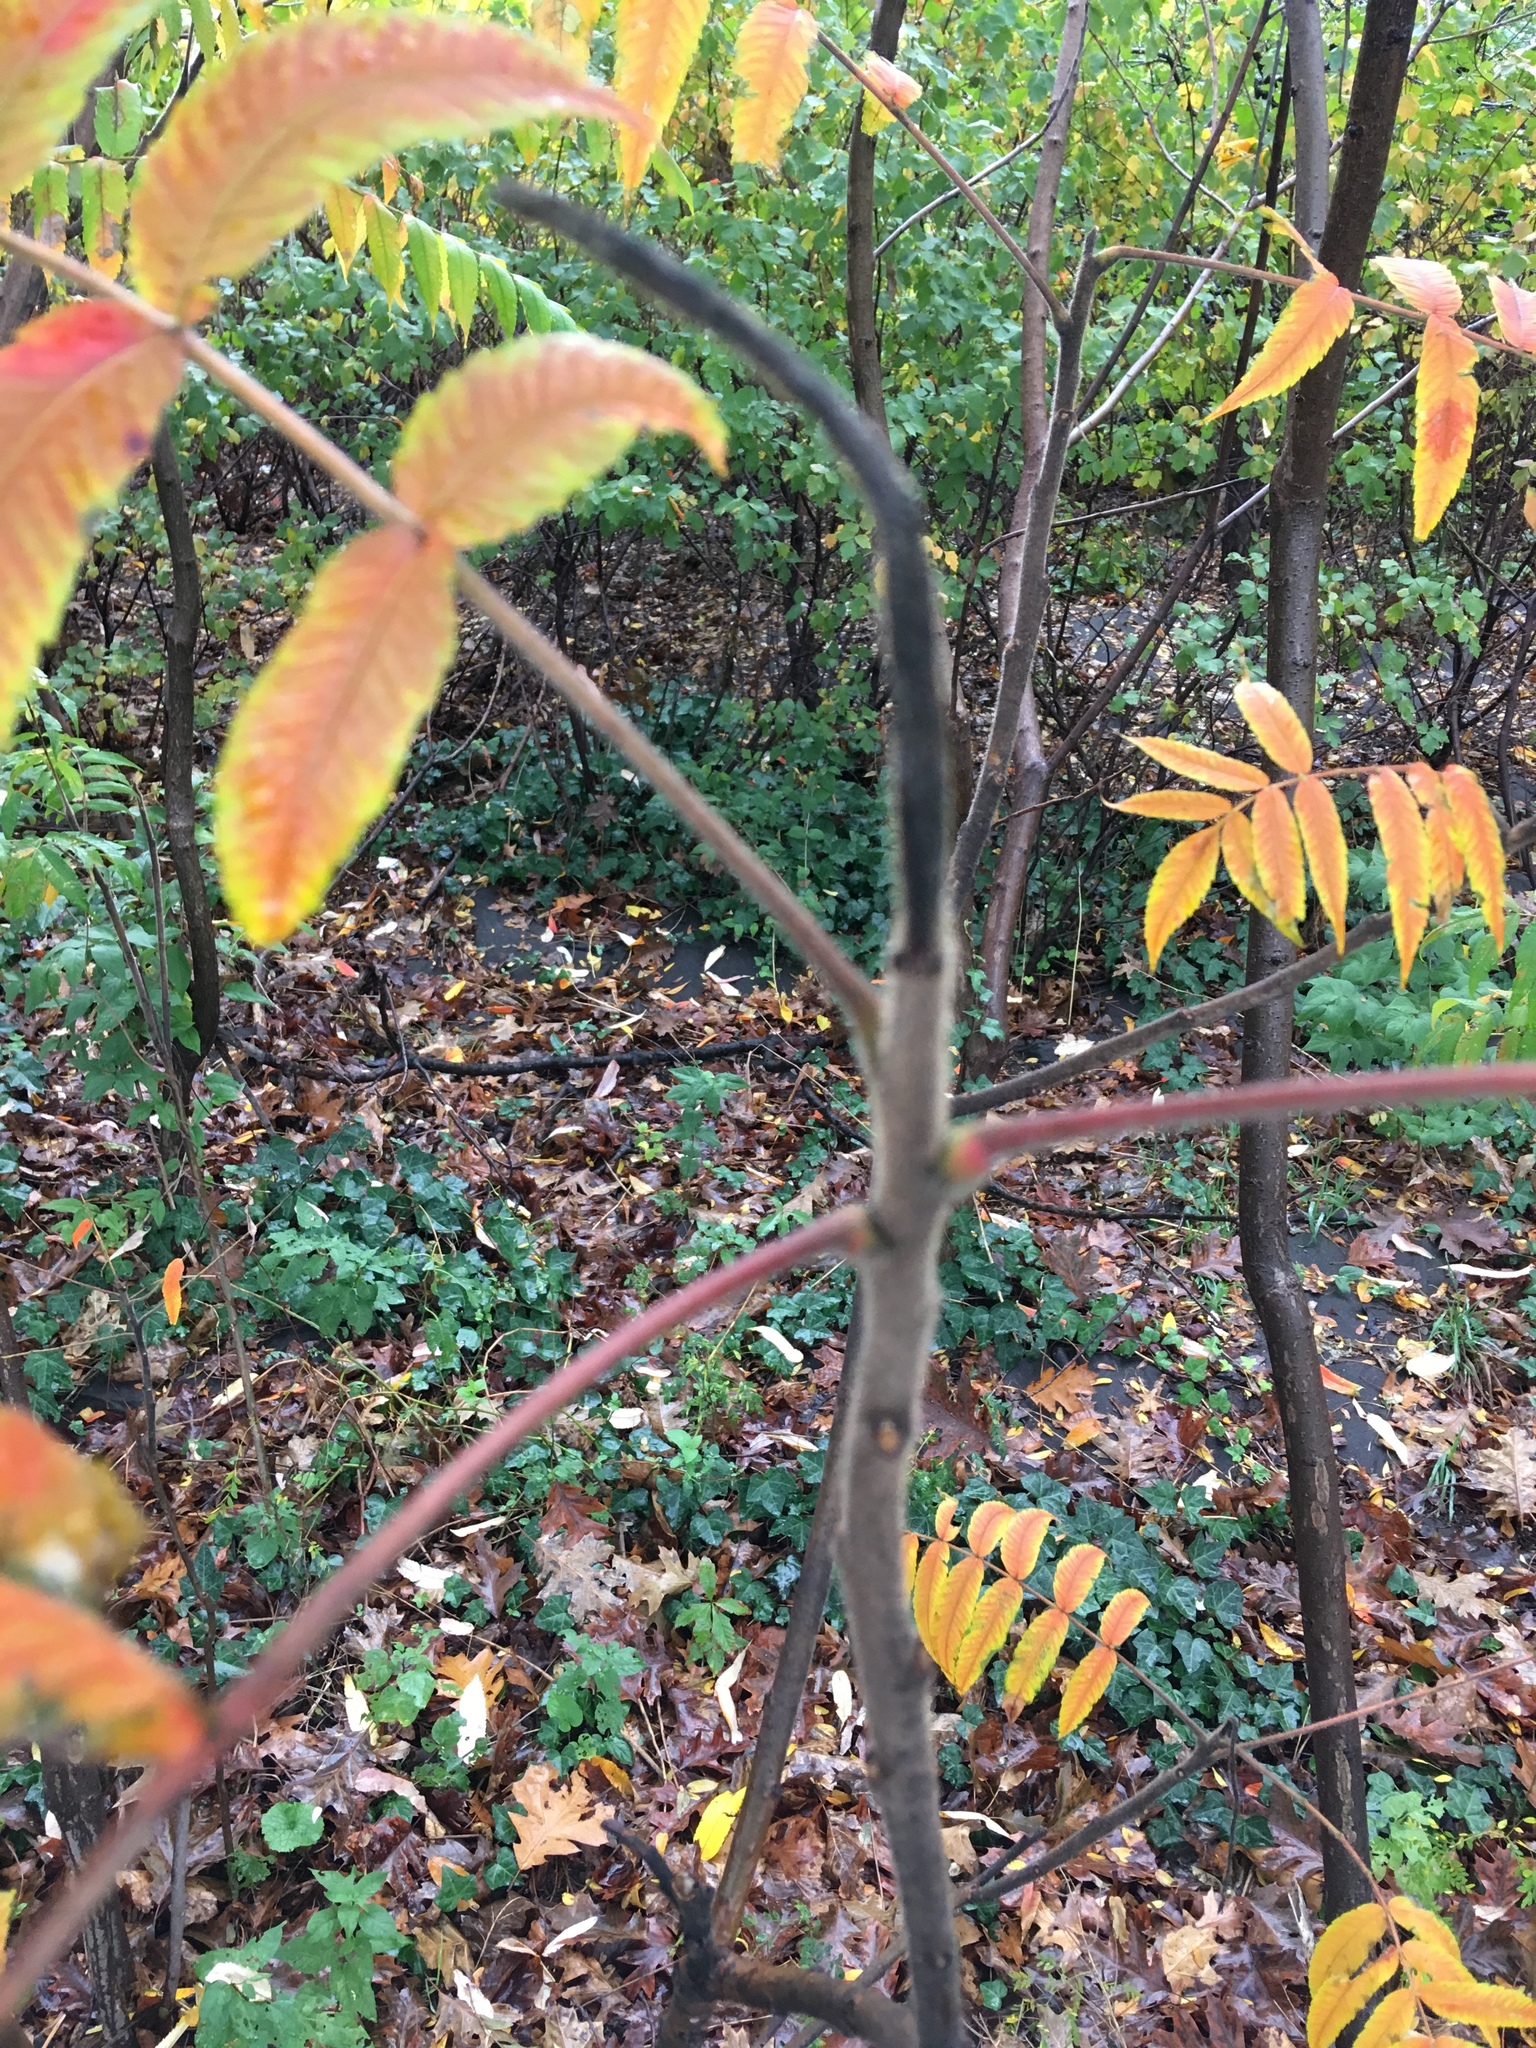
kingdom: Plantae
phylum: Tracheophyta
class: Magnoliopsida
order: Sapindales
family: Anacardiaceae
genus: Rhus
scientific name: Rhus typhina
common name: Staghorn sumac
